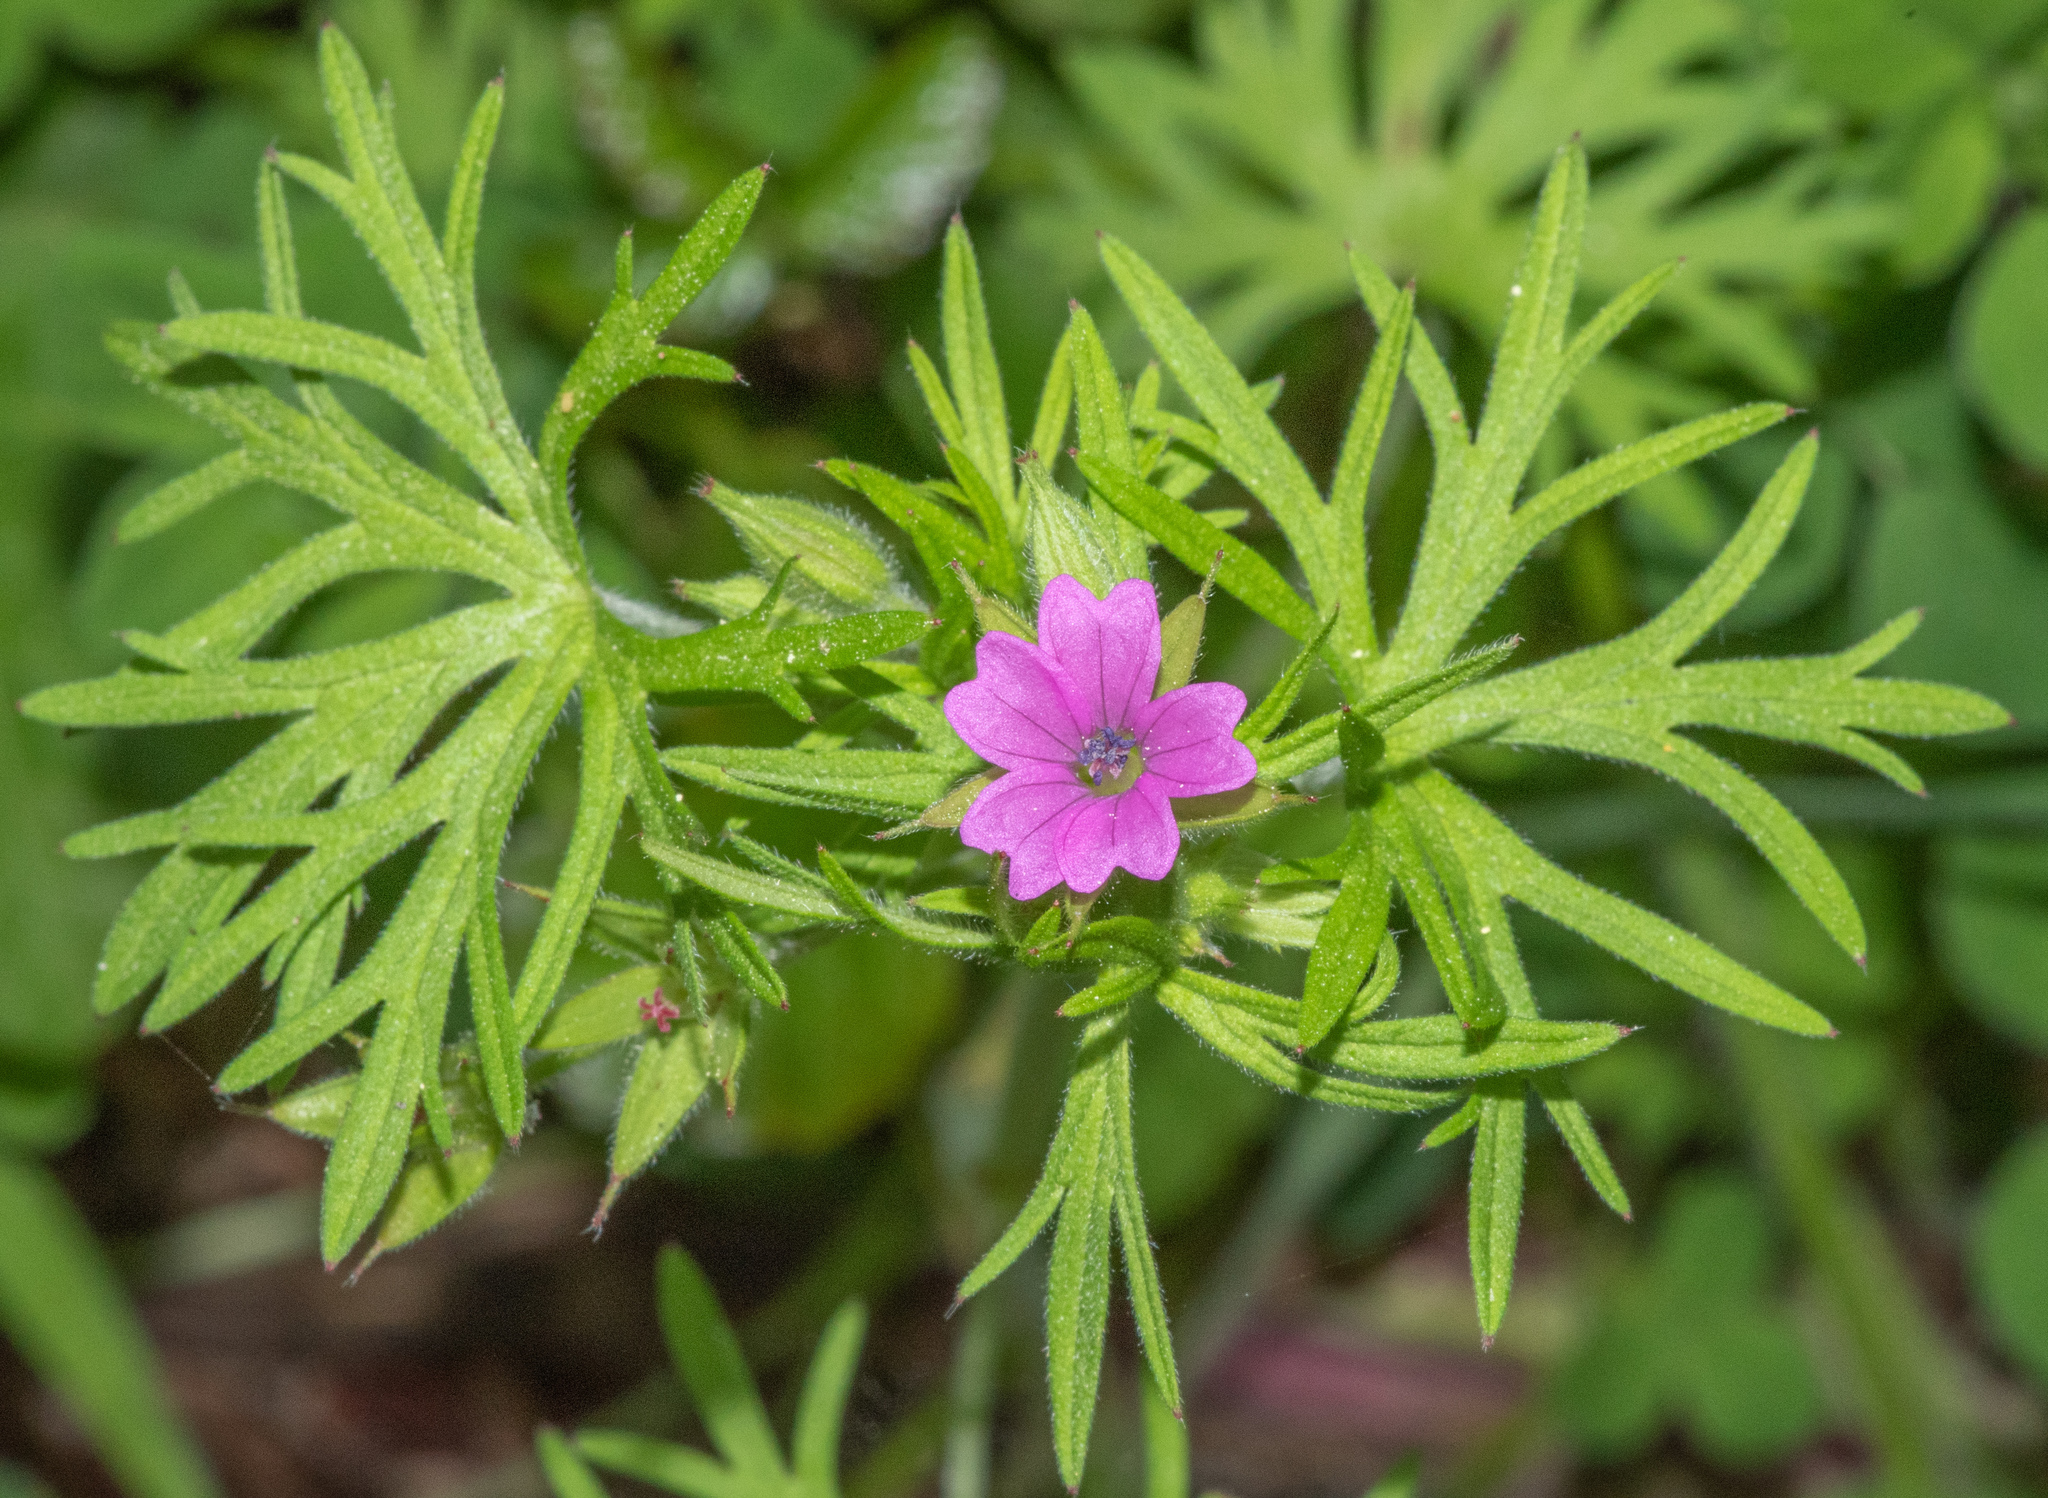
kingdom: Plantae
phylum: Tracheophyta
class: Magnoliopsida
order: Geraniales
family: Geraniaceae
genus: Geranium
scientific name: Geranium dissectum
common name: Cut-leaved crane's-bill
